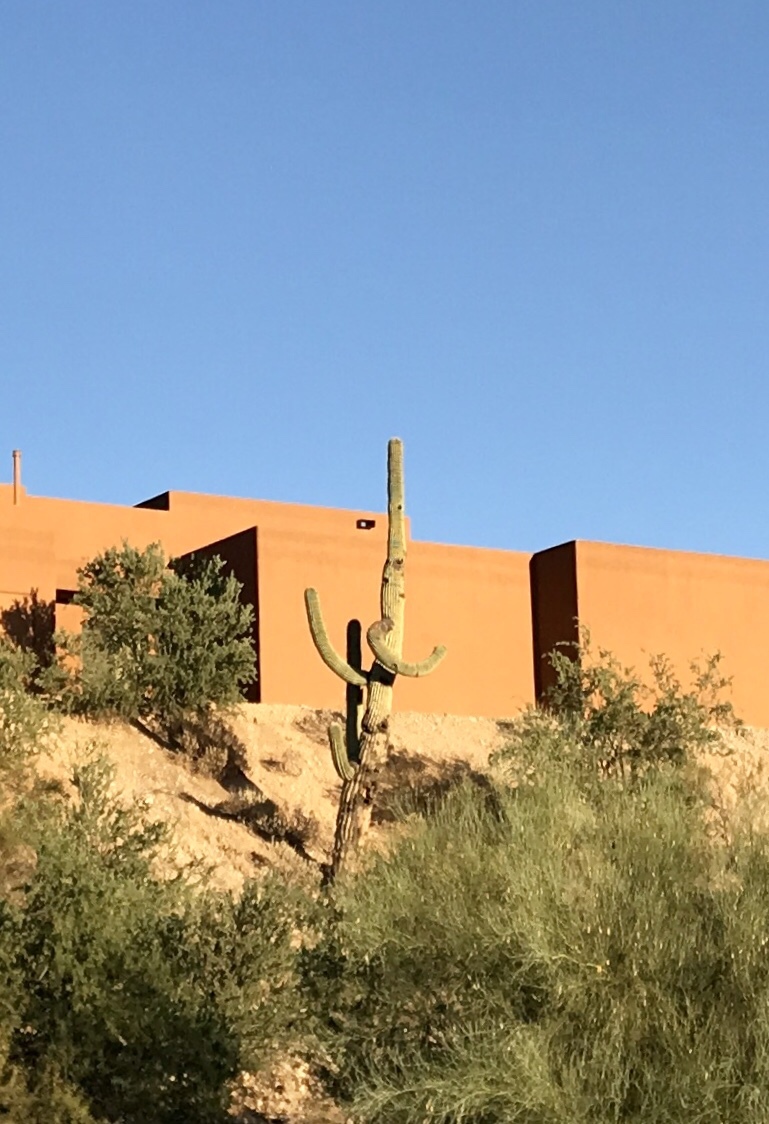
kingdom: Plantae
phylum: Tracheophyta
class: Magnoliopsida
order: Caryophyllales
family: Cactaceae
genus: Carnegiea
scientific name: Carnegiea gigantea
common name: Saguaro
